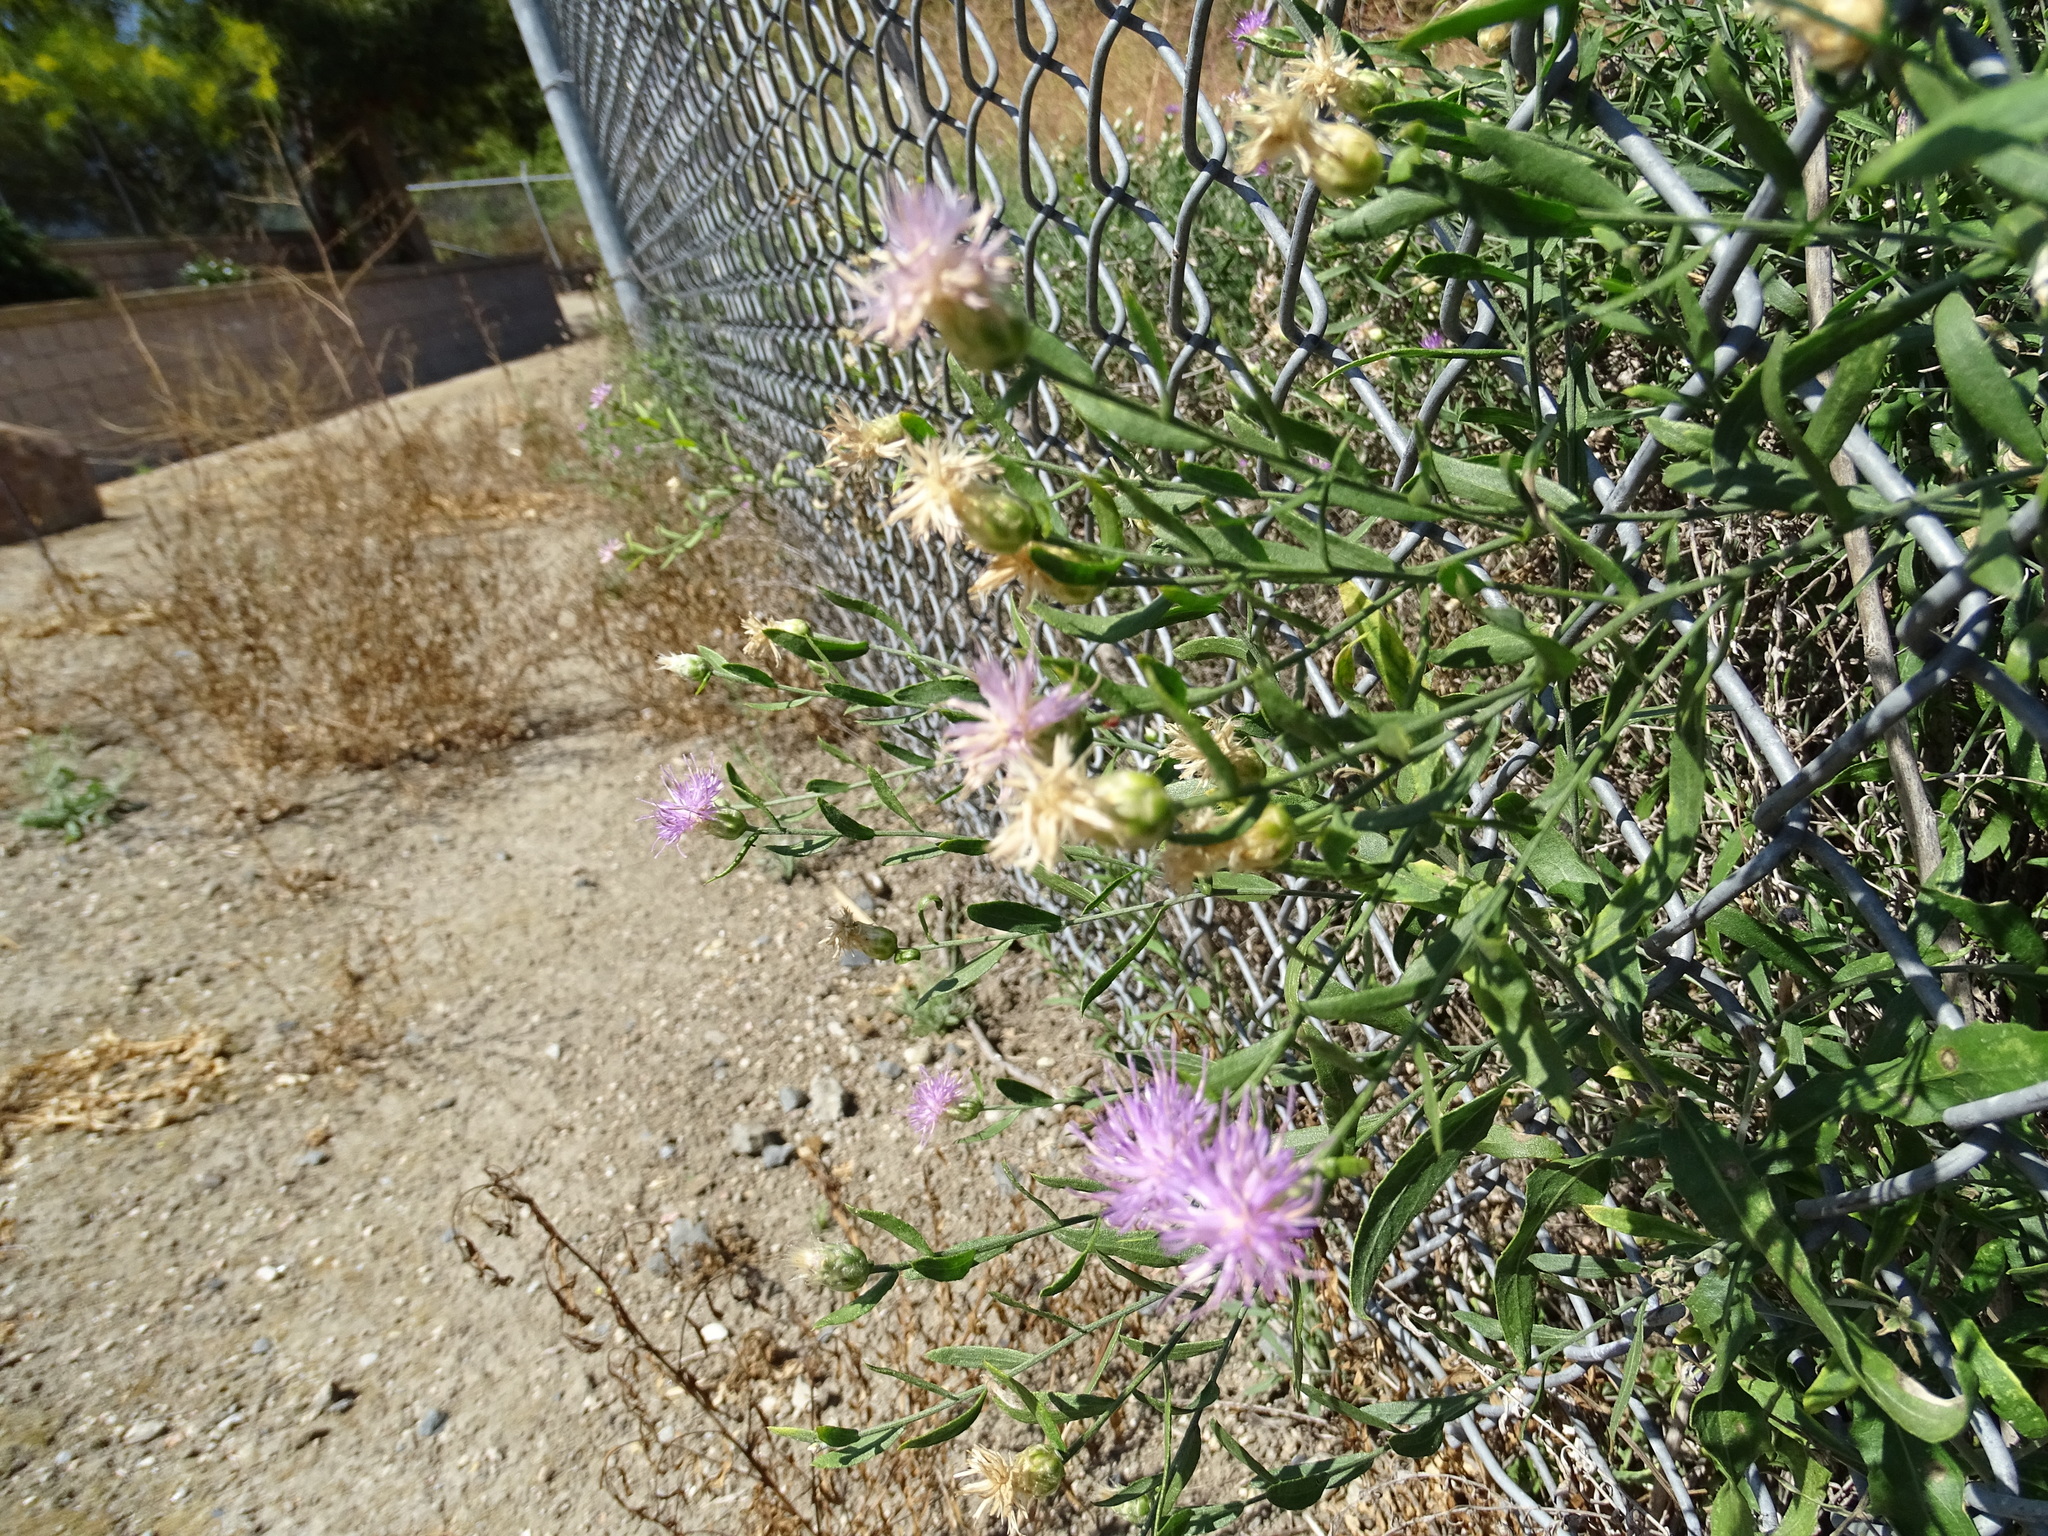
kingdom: Plantae
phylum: Tracheophyta
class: Magnoliopsida
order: Asterales
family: Asteraceae
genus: Leuzea
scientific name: Leuzea repens
